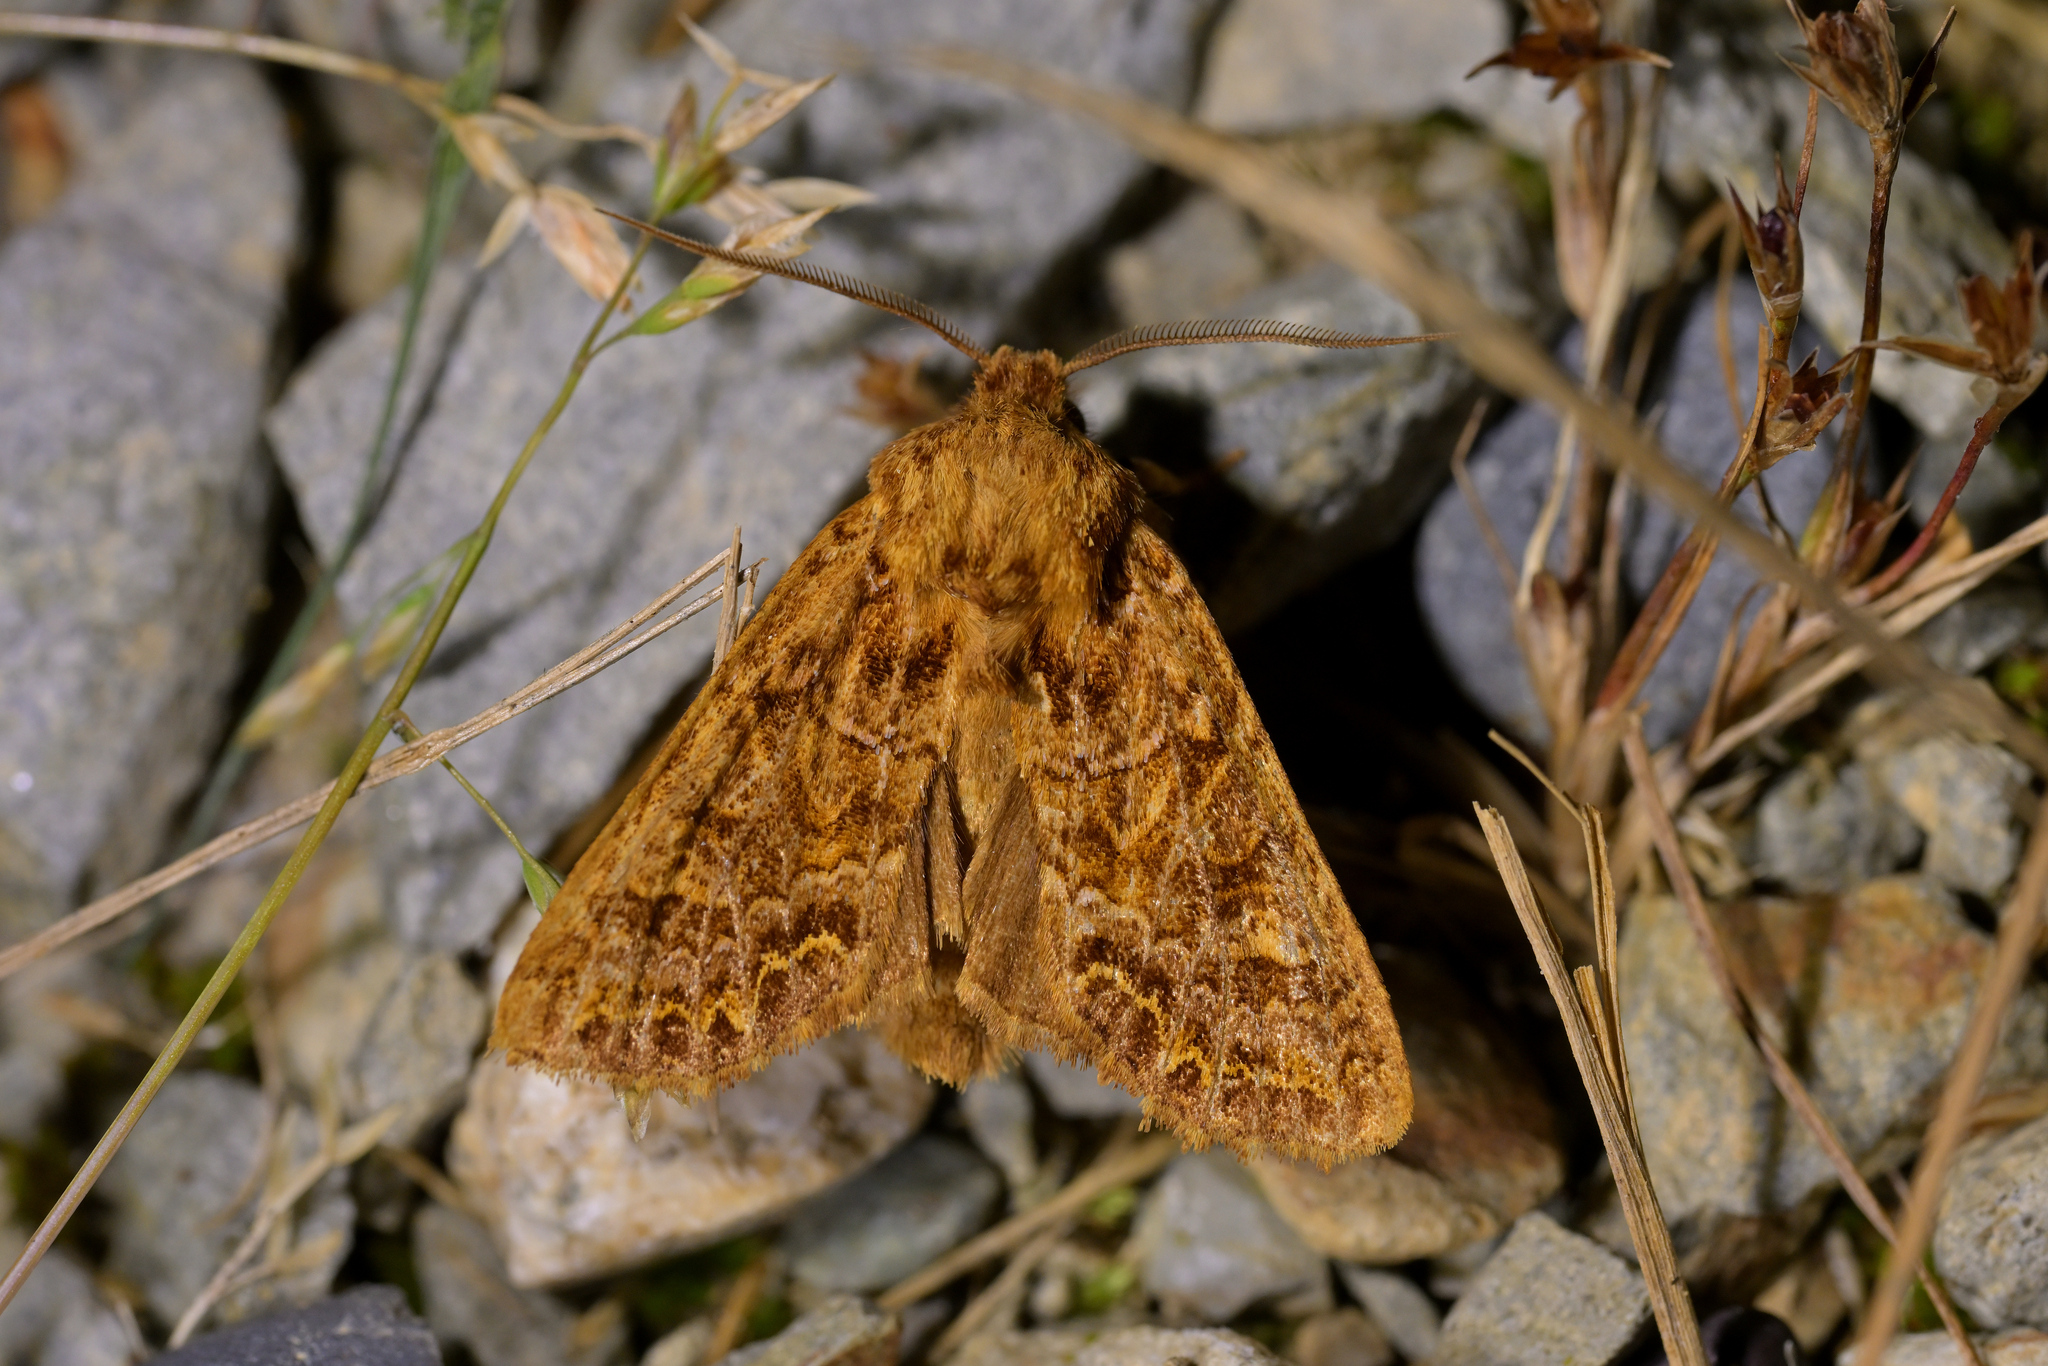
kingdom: Animalia
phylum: Arthropoda
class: Insecta
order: Lepidoptera
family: Noctuidae
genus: Ichneutica
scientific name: Ichneutica
